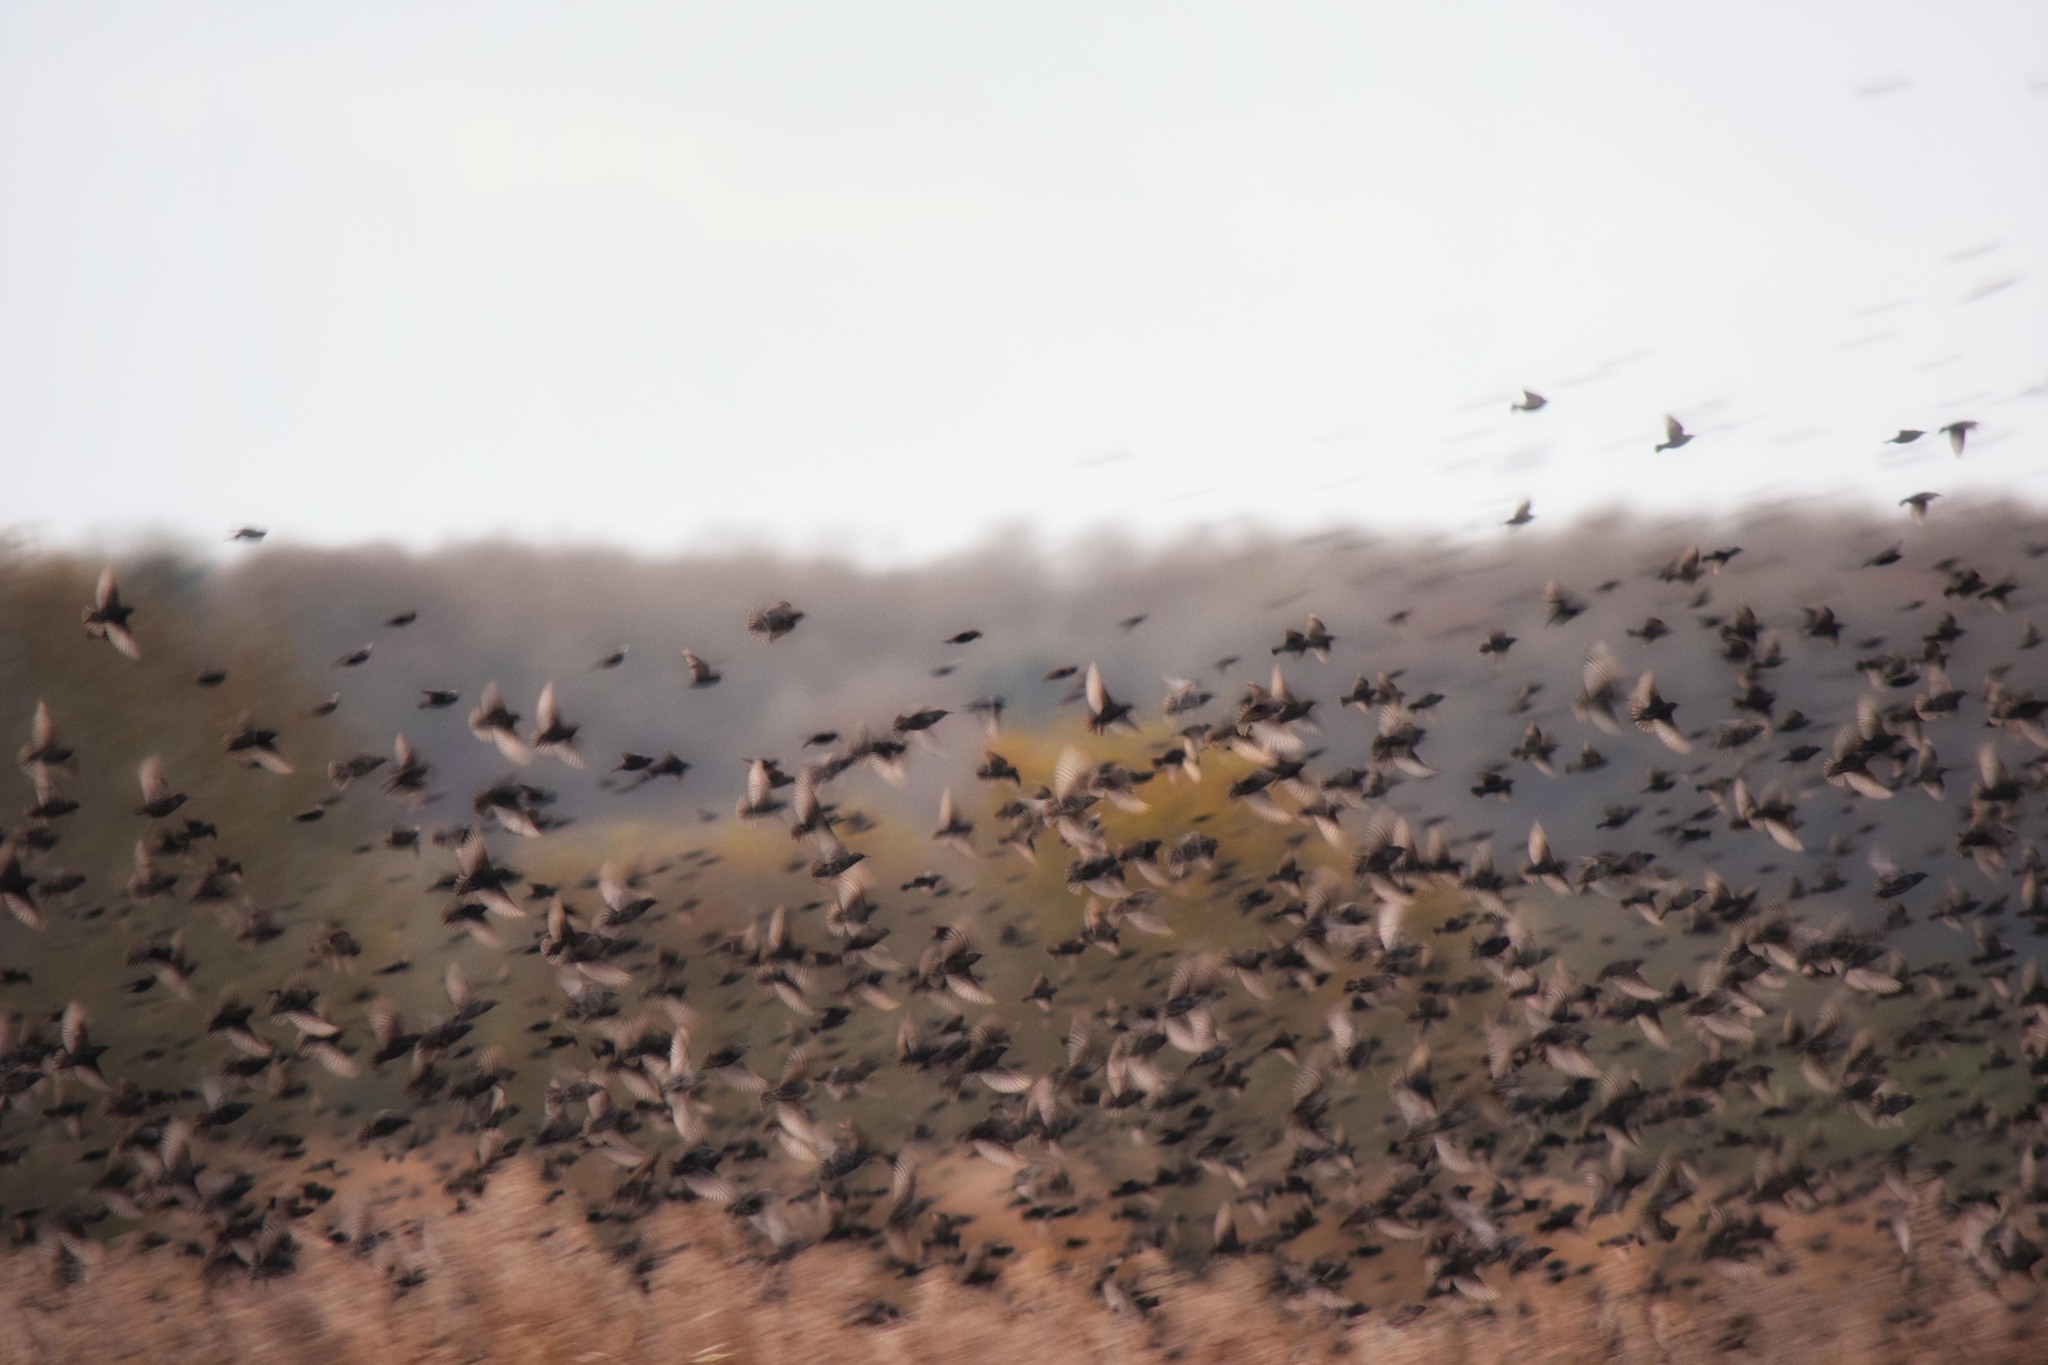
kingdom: Animalia
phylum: Chordata
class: Aves
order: Passeriformes
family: Sturnidae
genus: Sturnus
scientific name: Sturnus vulgaris
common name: Common starling
